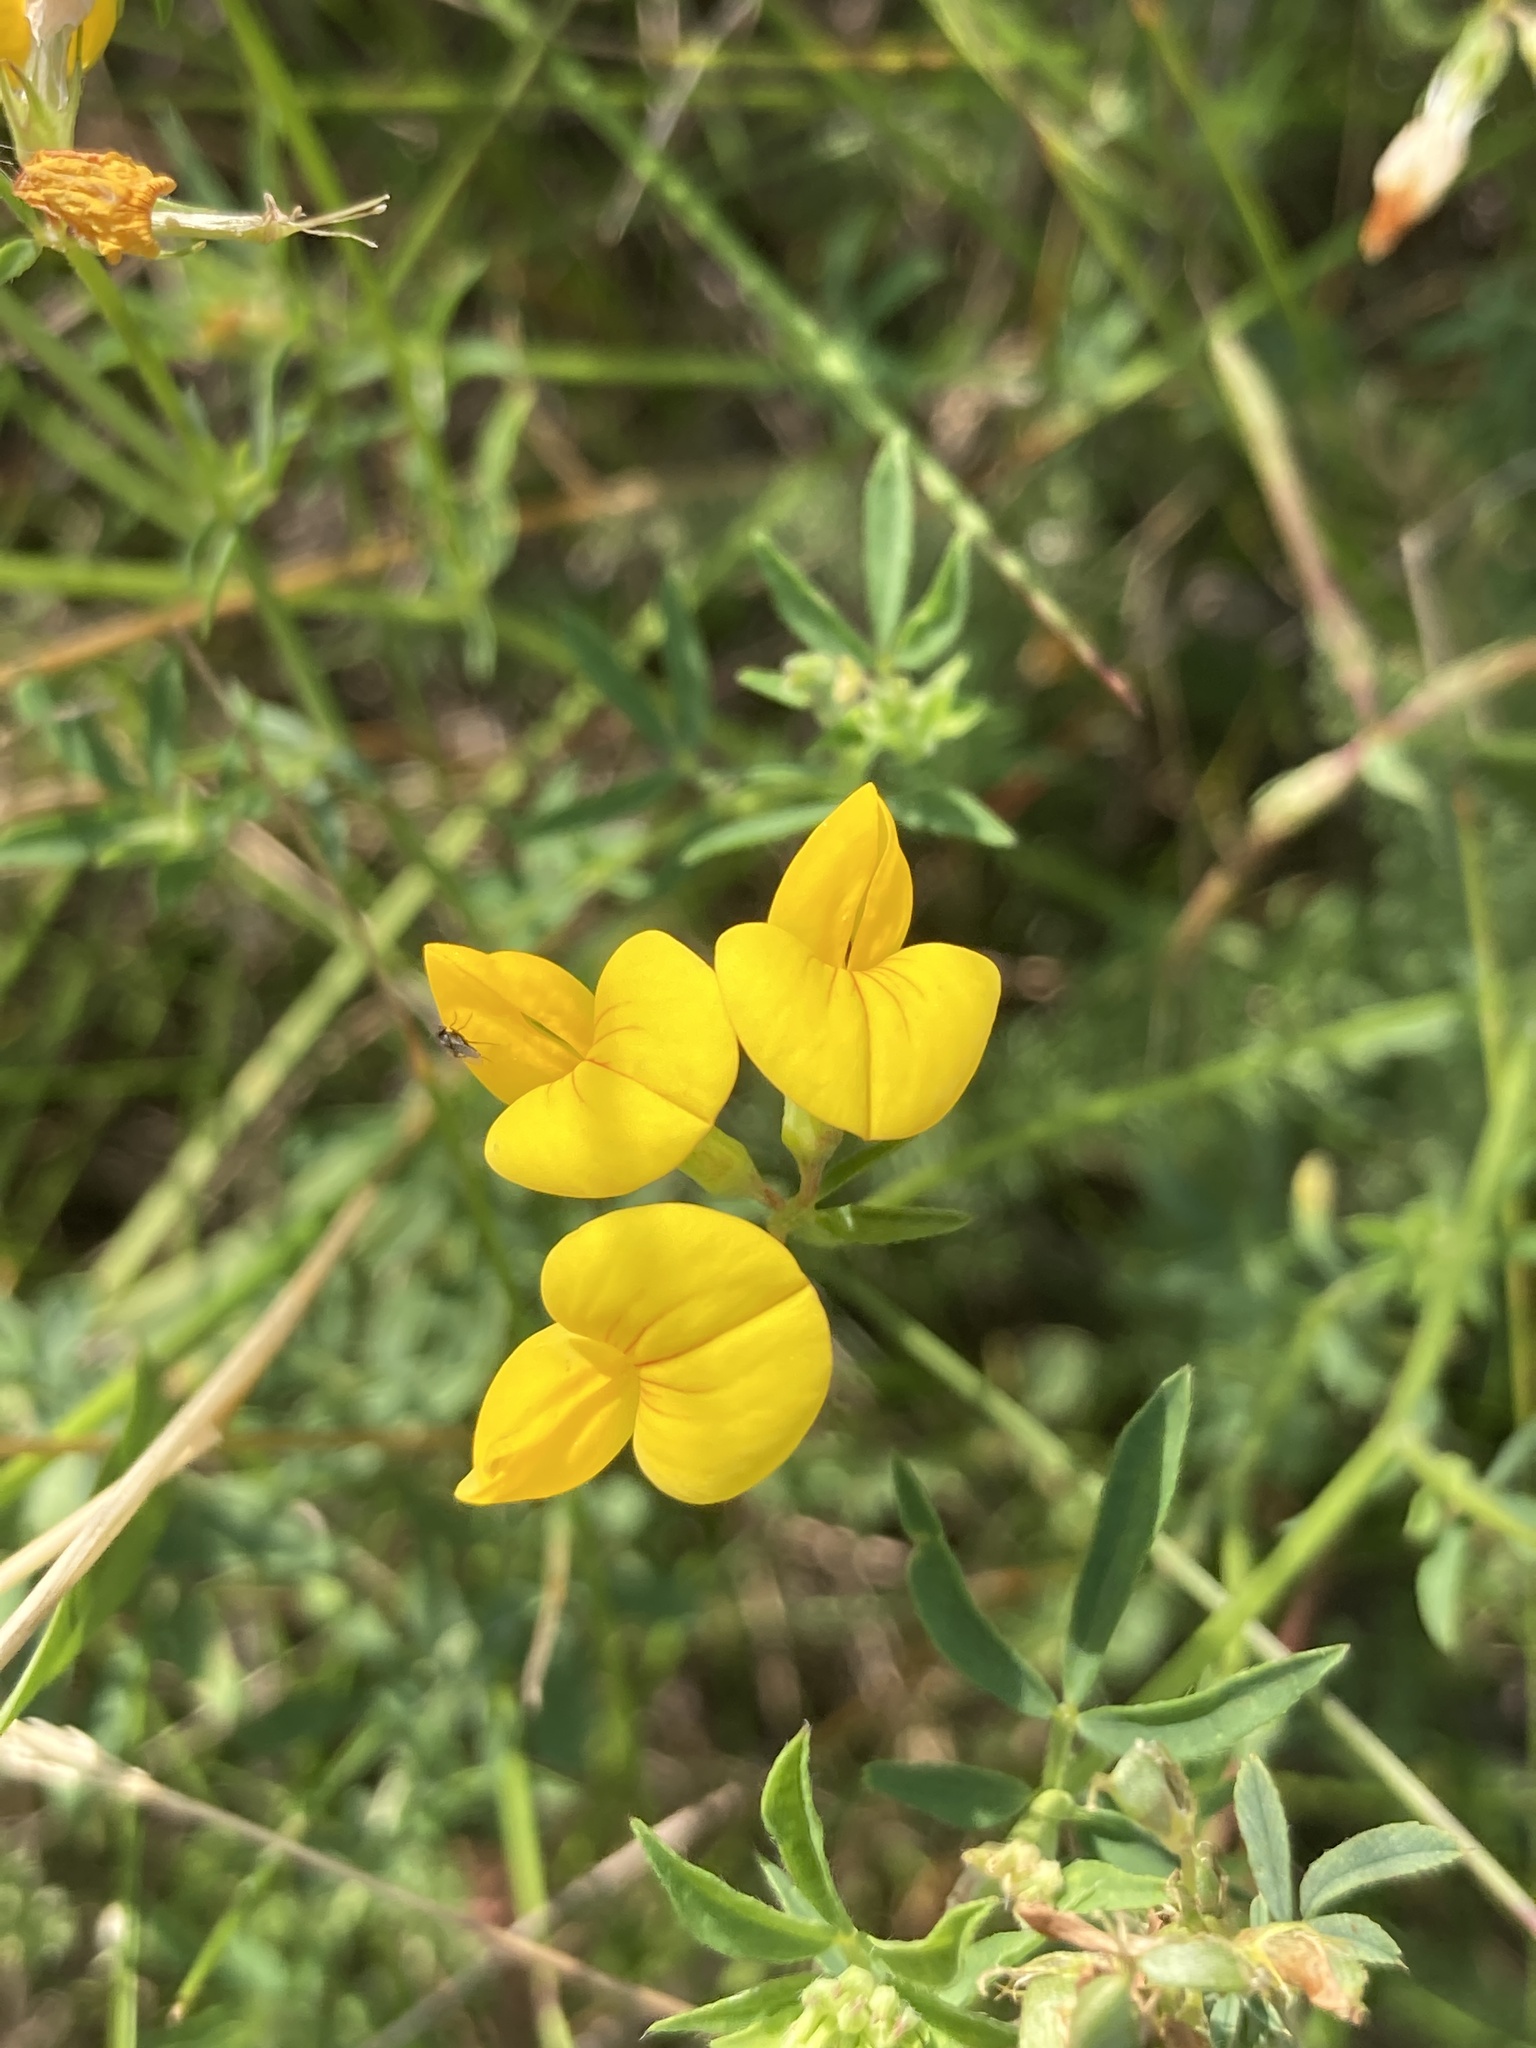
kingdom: Plantae
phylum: Tracheophyta
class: Magnoliopsida
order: Fabales
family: Fabaceae
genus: Lotus
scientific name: Lotus corniculatus
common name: Common bird's-foot-trefoil
